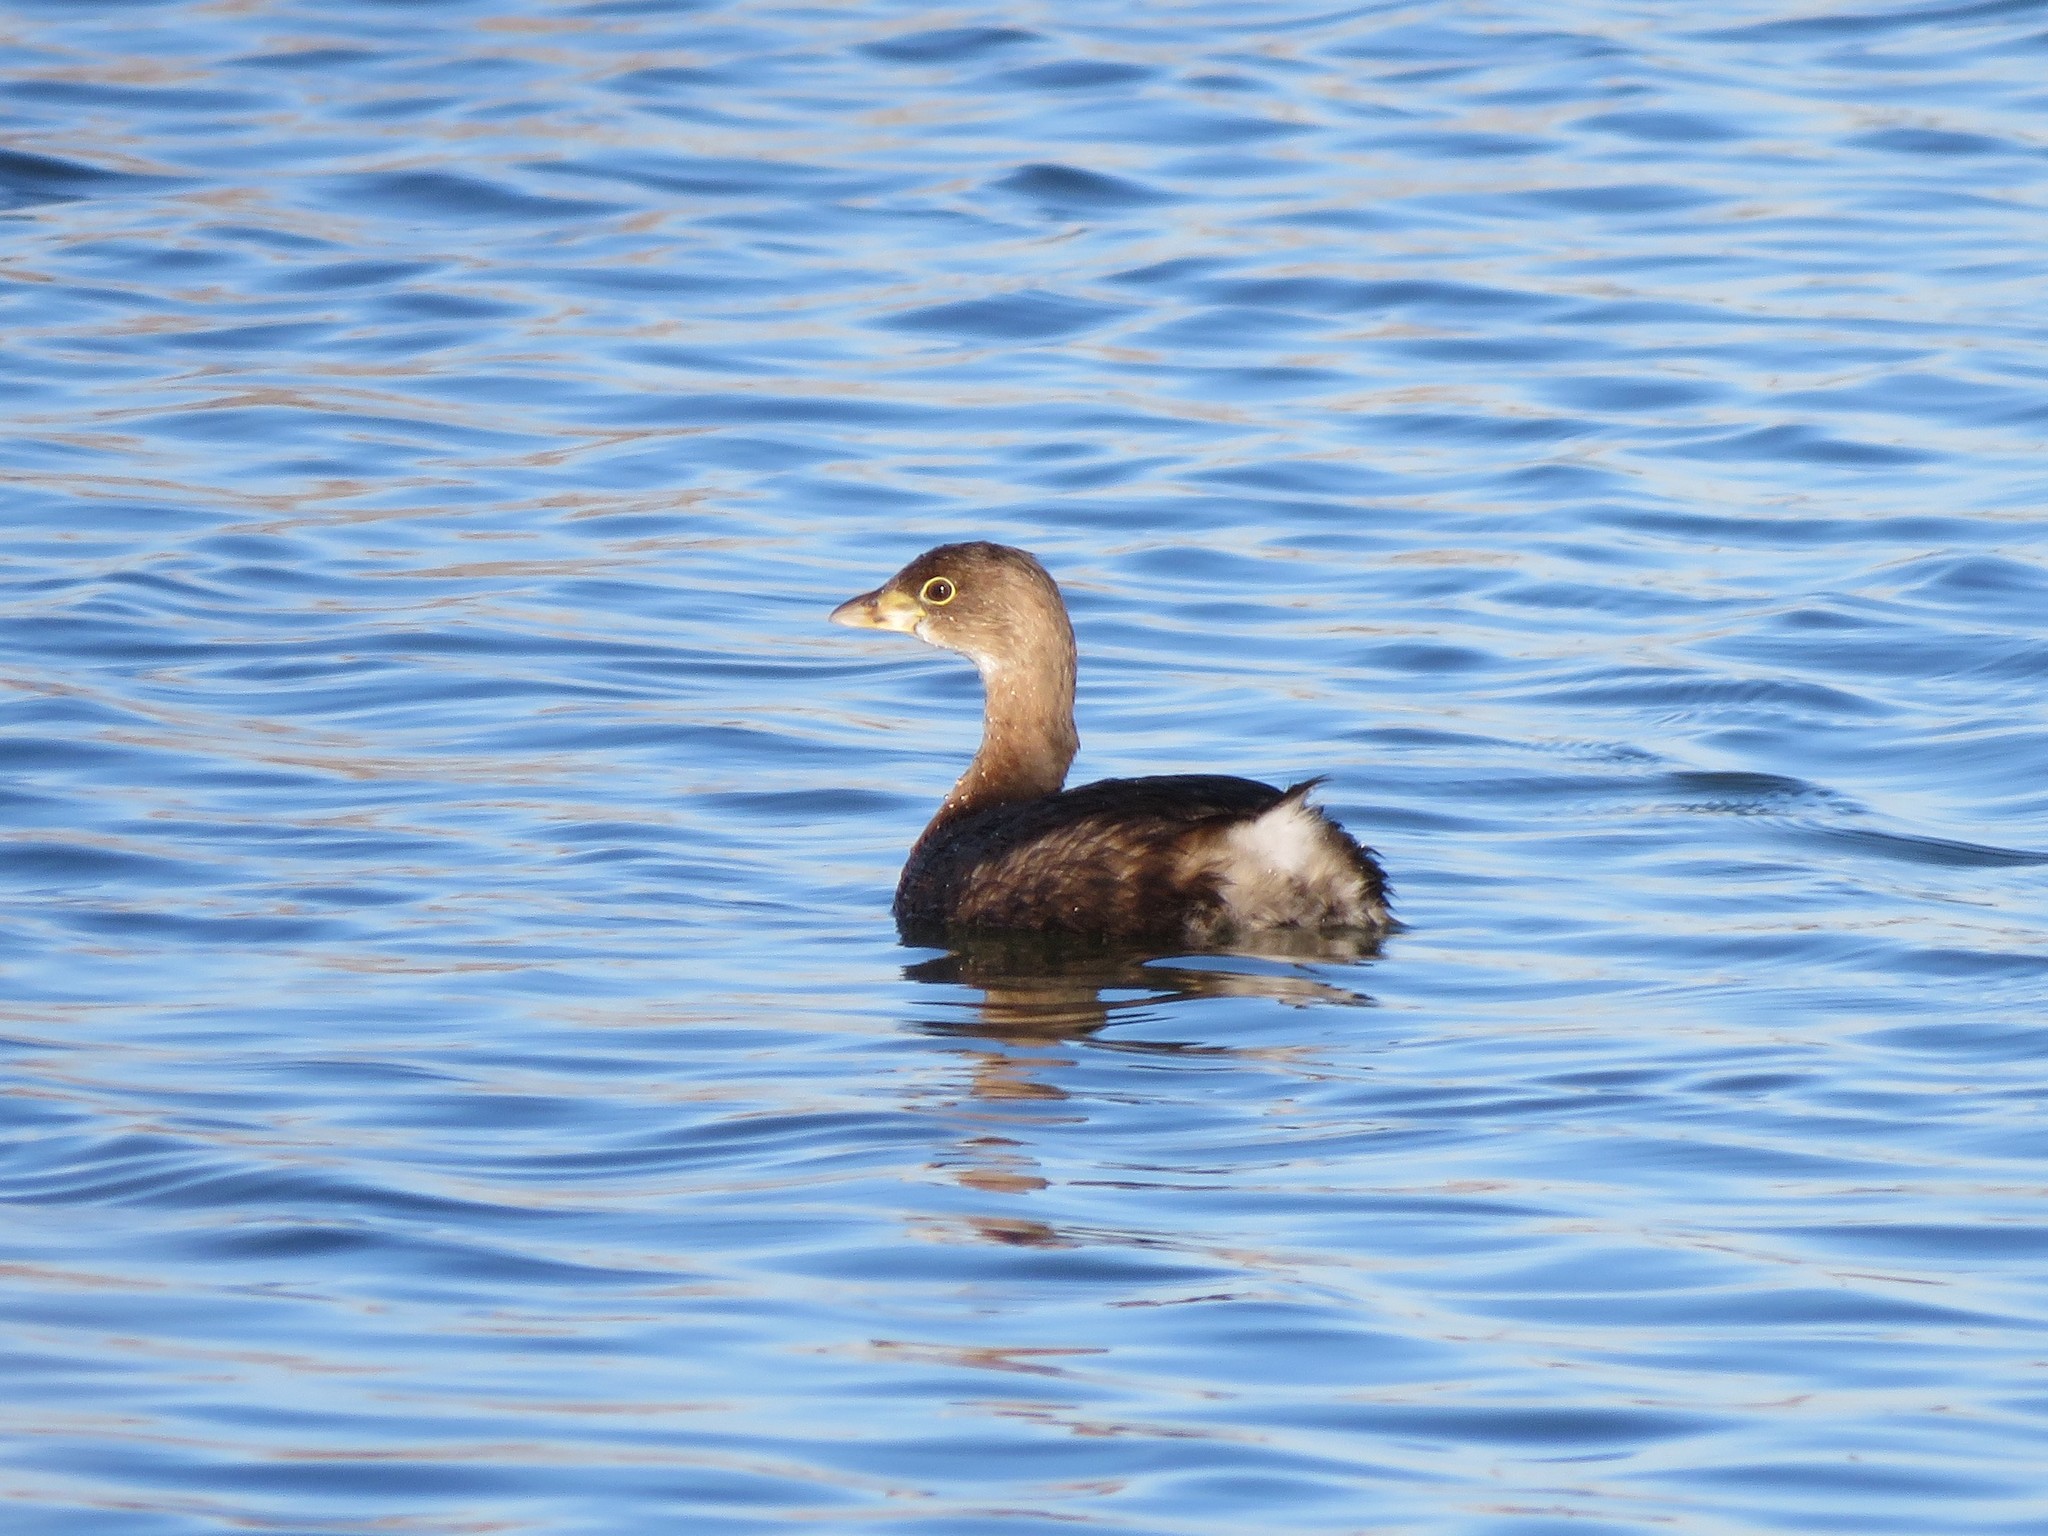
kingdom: Animalia
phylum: Chordata
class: Aves
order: Podicipediformes
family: Podicipedidae
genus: Podilymbus
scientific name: Podilymbus podiceps
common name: Pied-billed grebe
